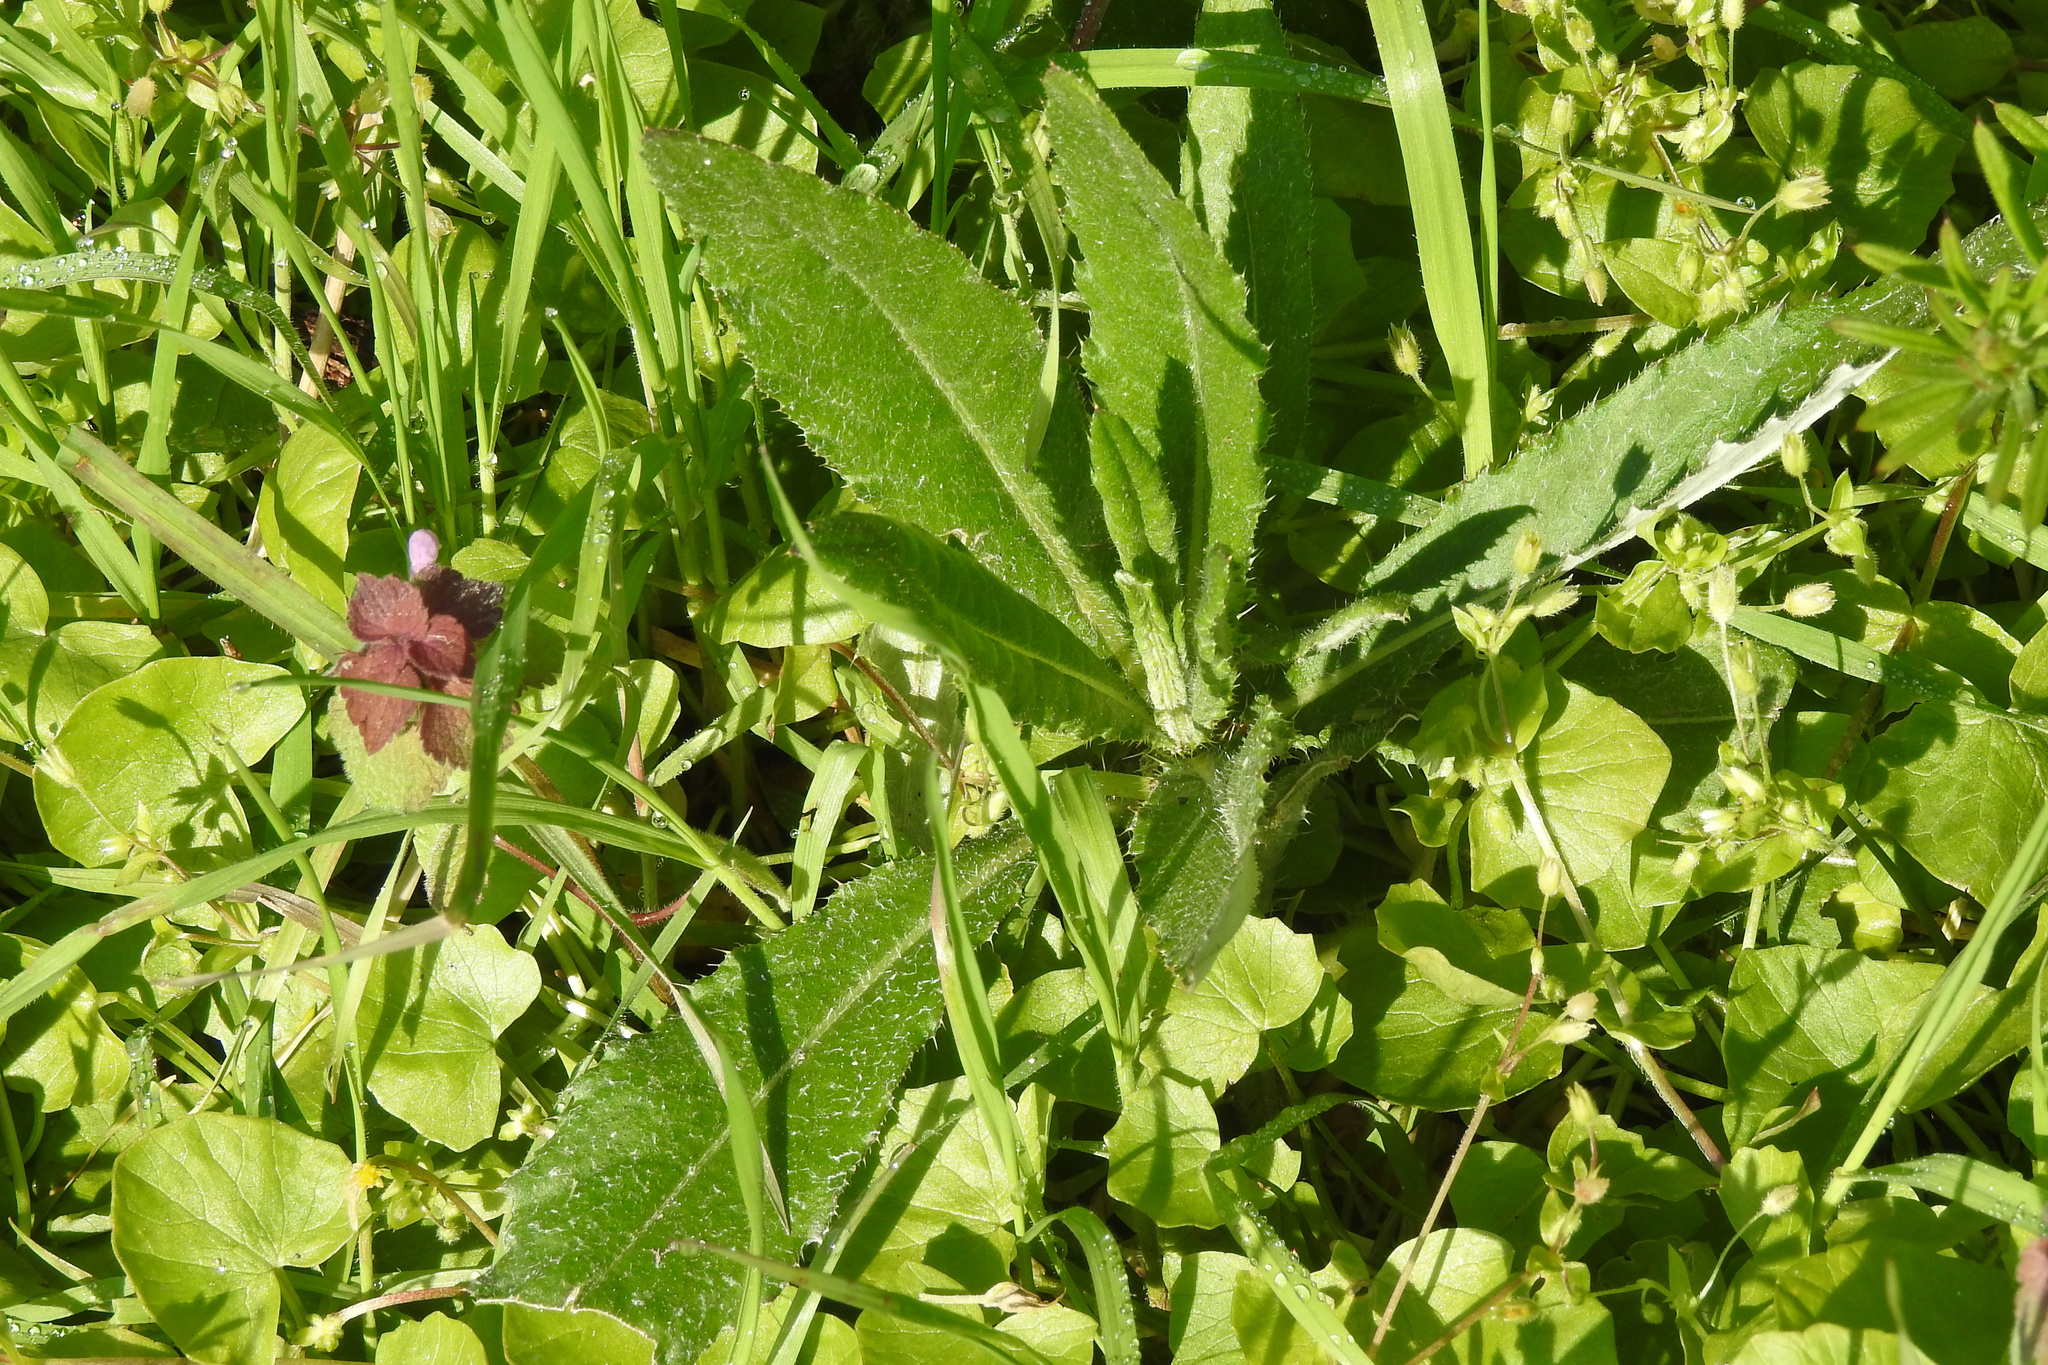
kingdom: Plantae
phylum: Tracheophyta
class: Magnoliopsida
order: Asterales
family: Asteraceae
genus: Cirsium
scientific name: Cirsium arvense
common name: Creeping thistle
